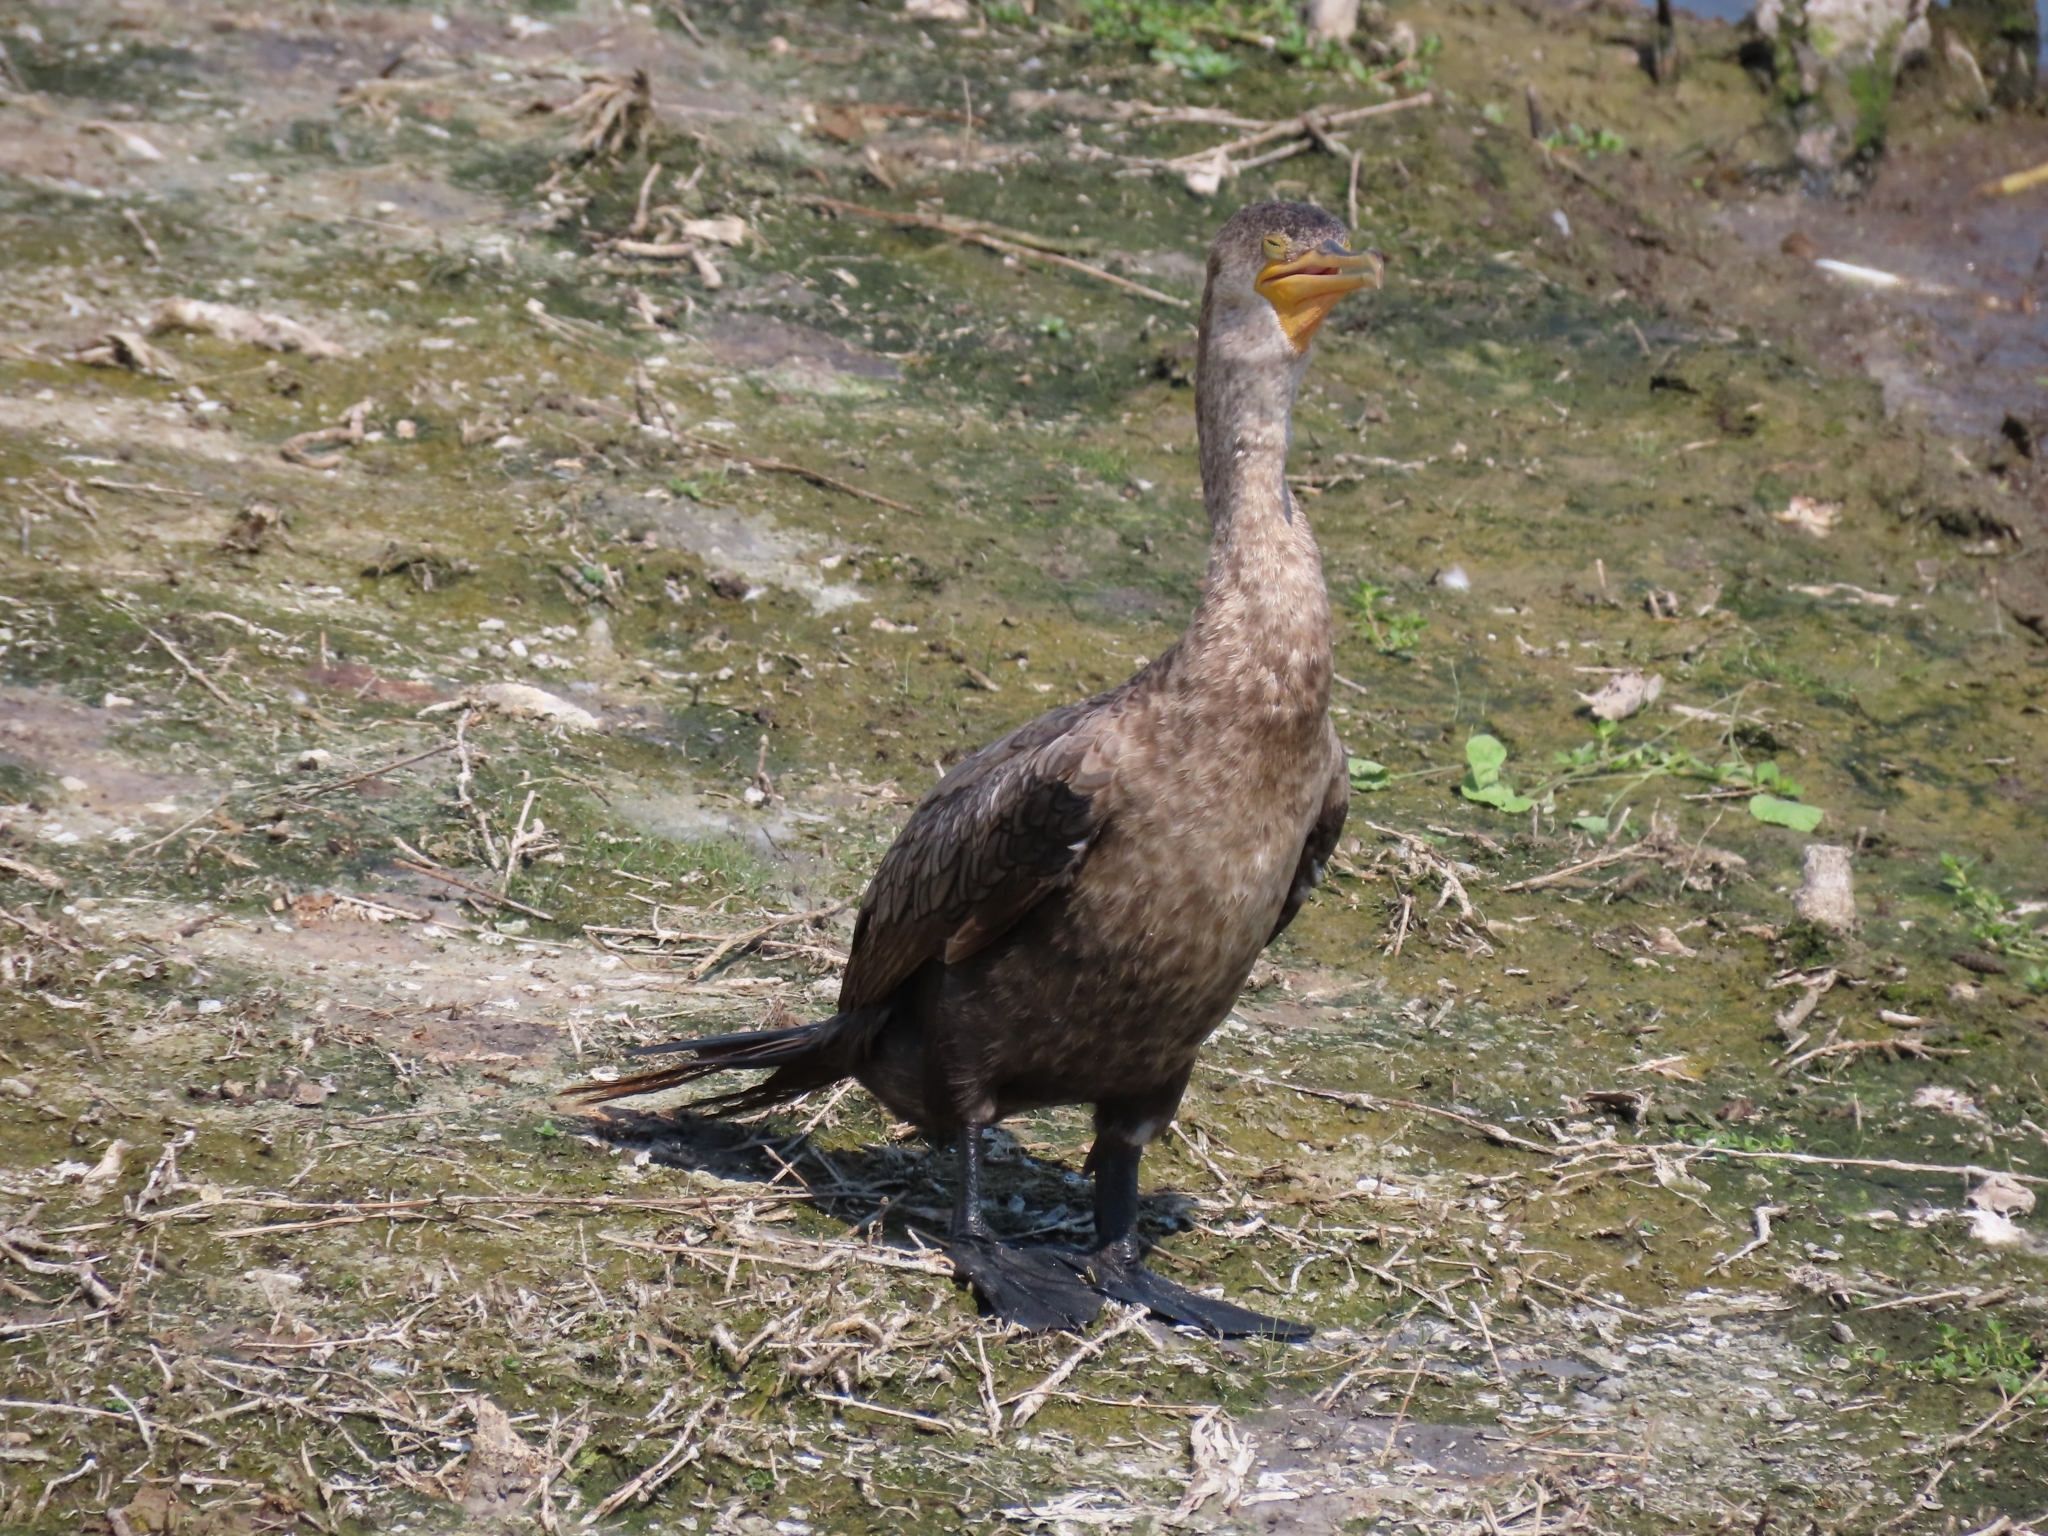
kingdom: Animalia
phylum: Chordata
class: Aves
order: Suliformes
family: Phalacrocoracidae
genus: Phalacrocorax
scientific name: Phalacrocorax brasilianus
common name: Neotropic cormorant
